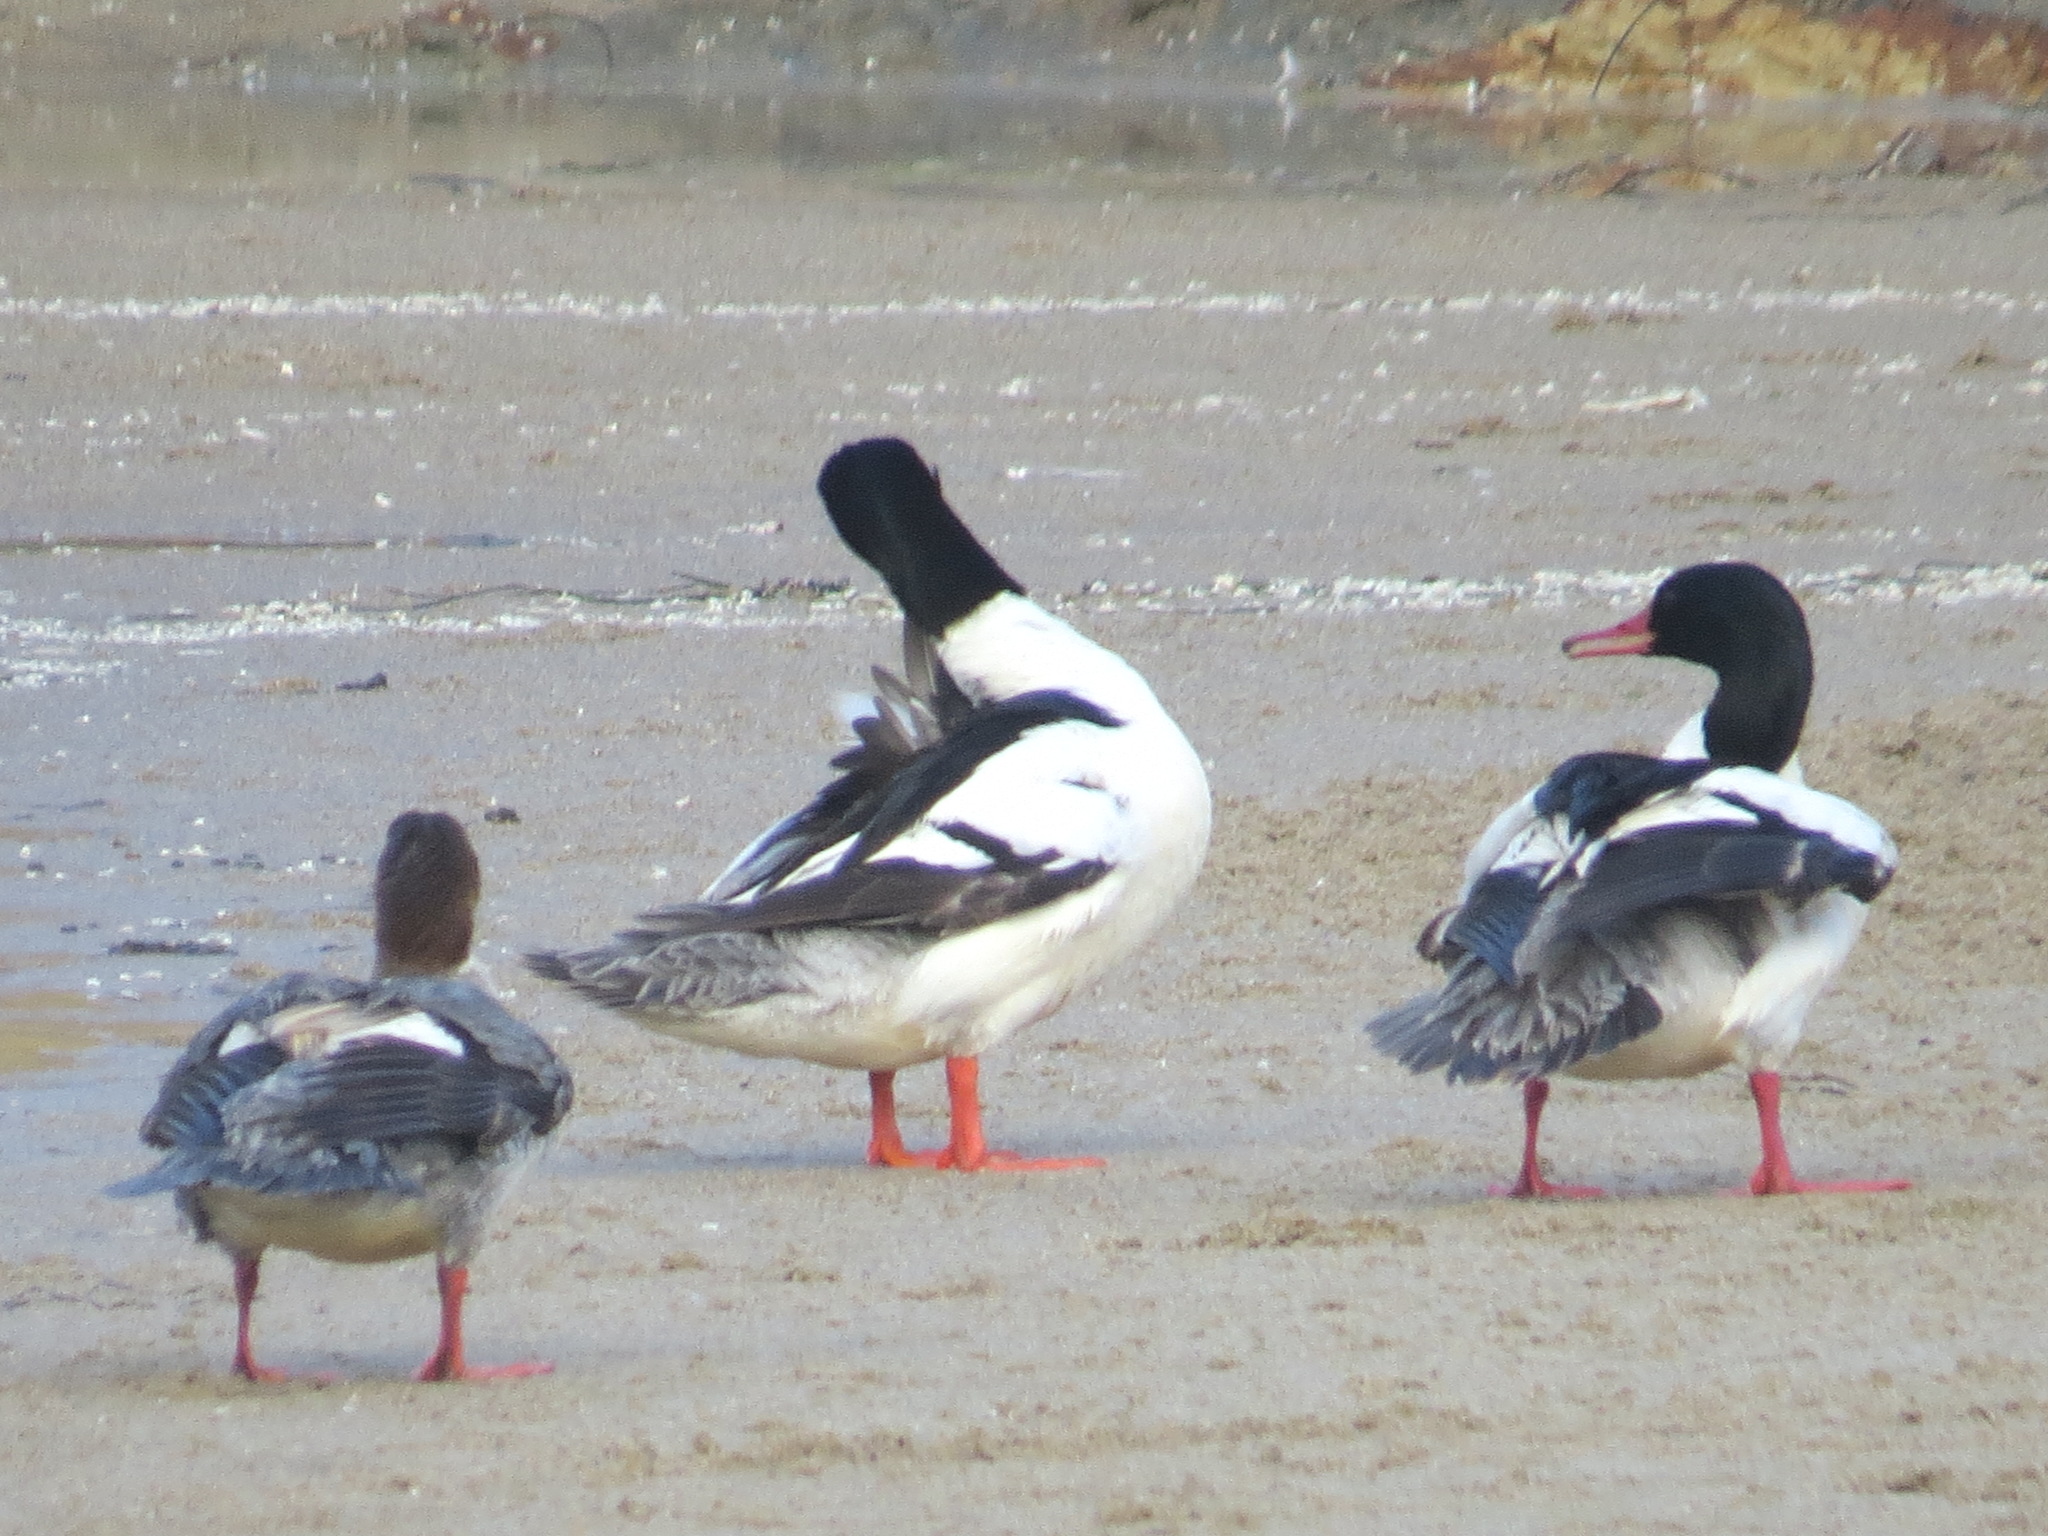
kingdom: Animalia
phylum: Chordata
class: Aves
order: Anseriformes
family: Anatidae
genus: Mergus
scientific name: Mergus merganser
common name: Common merganser
